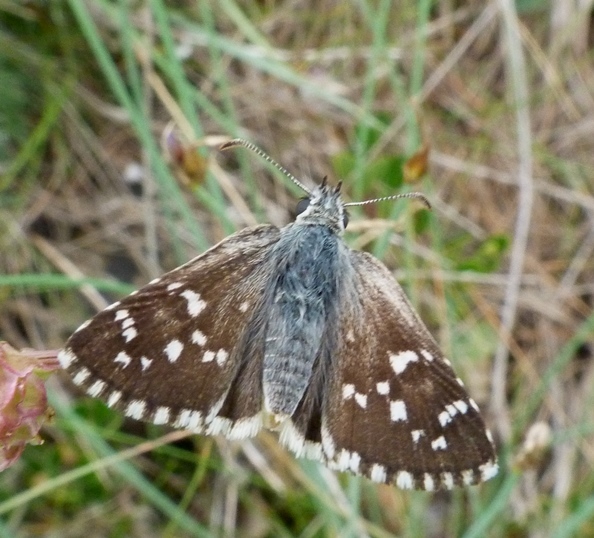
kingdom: Animalia
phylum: Arthropoda
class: Insecta
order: Lepidoptera
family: Hesperiidae
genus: Pyrgus
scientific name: Pyrgus fritillarius
